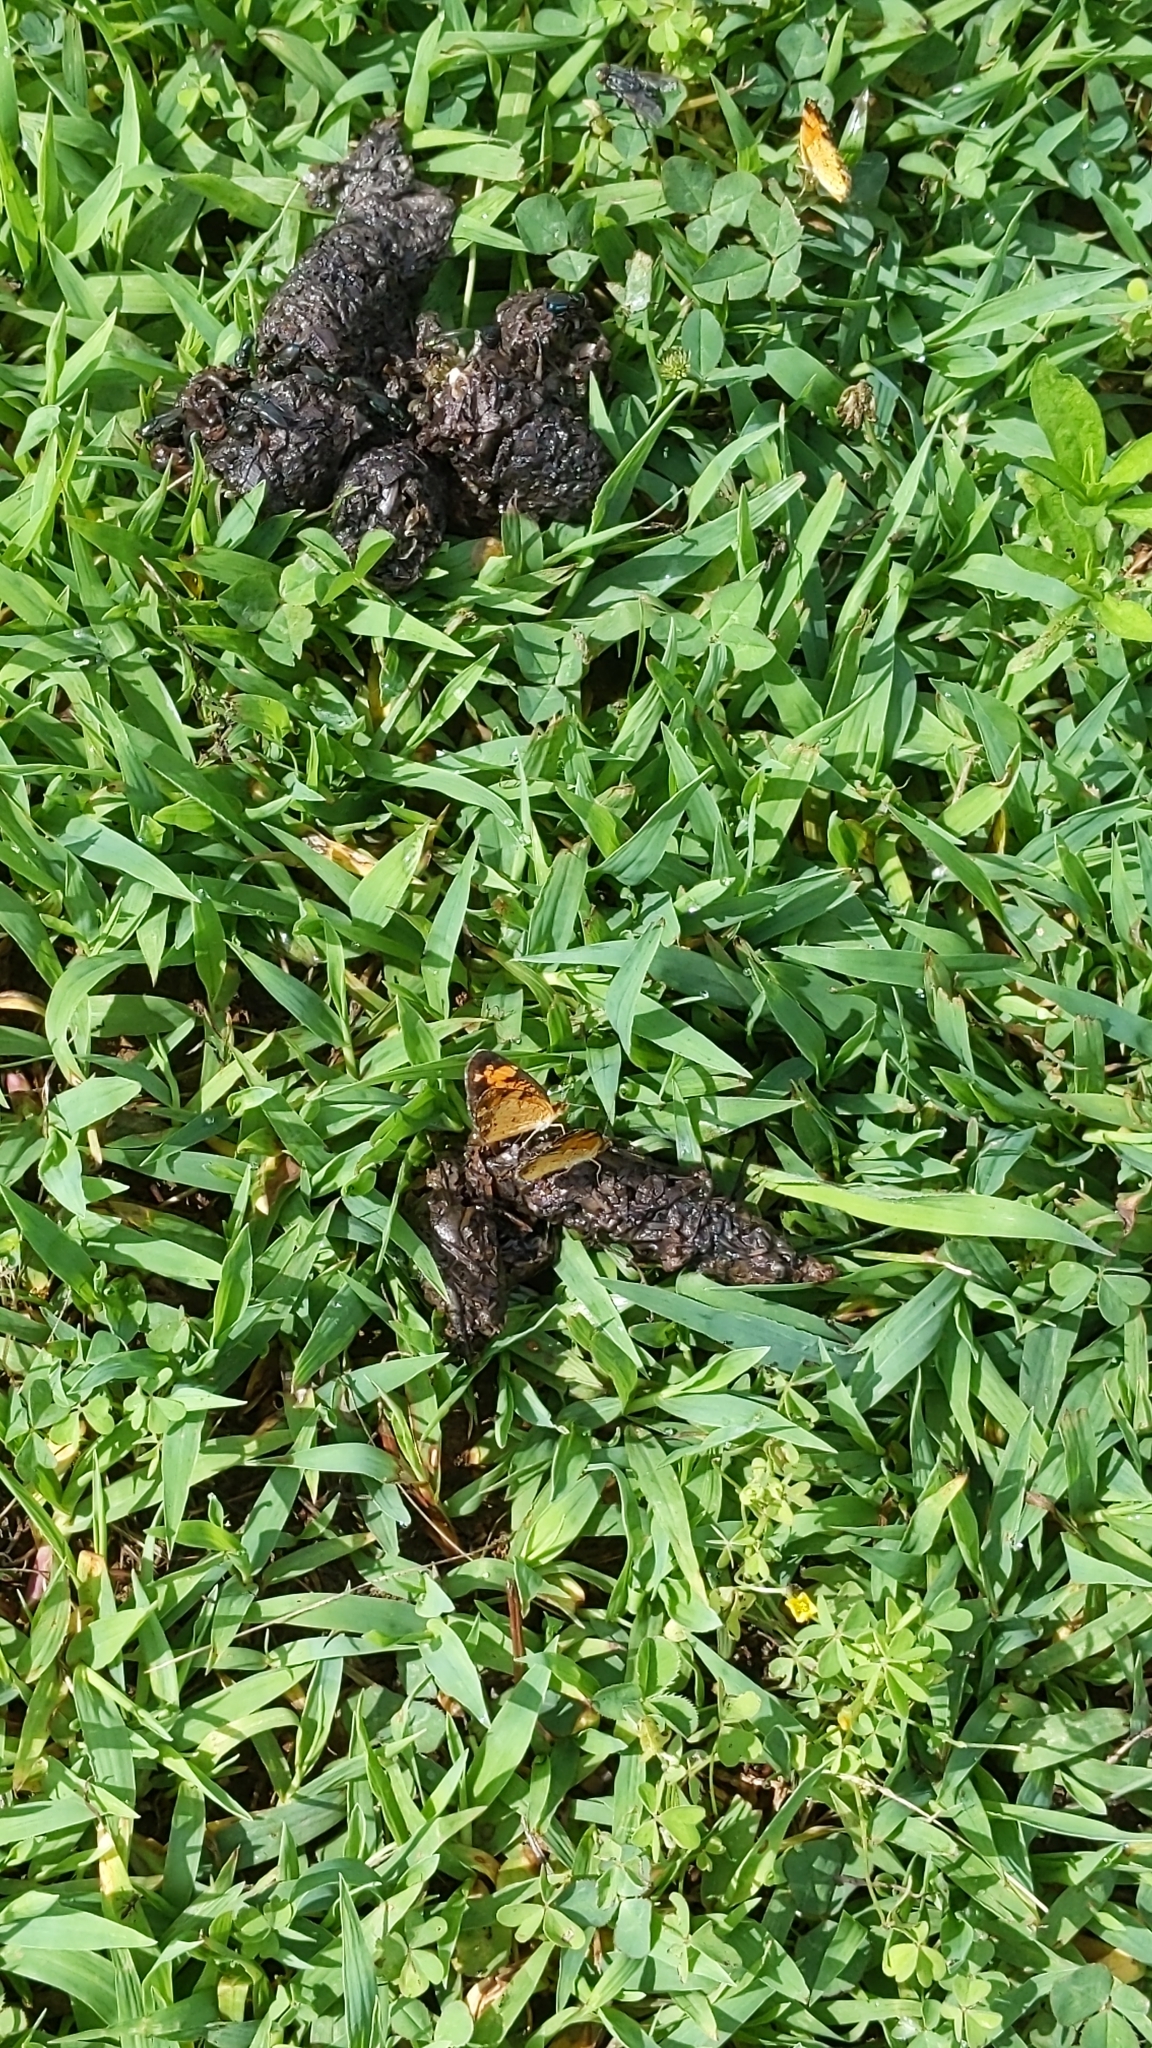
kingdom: Animalia
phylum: Arthropoda
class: Insecta
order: Lepidoptera
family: Nymphalidae
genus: Phyciodes
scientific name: Phyciodes tharos
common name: Pearl crescent
